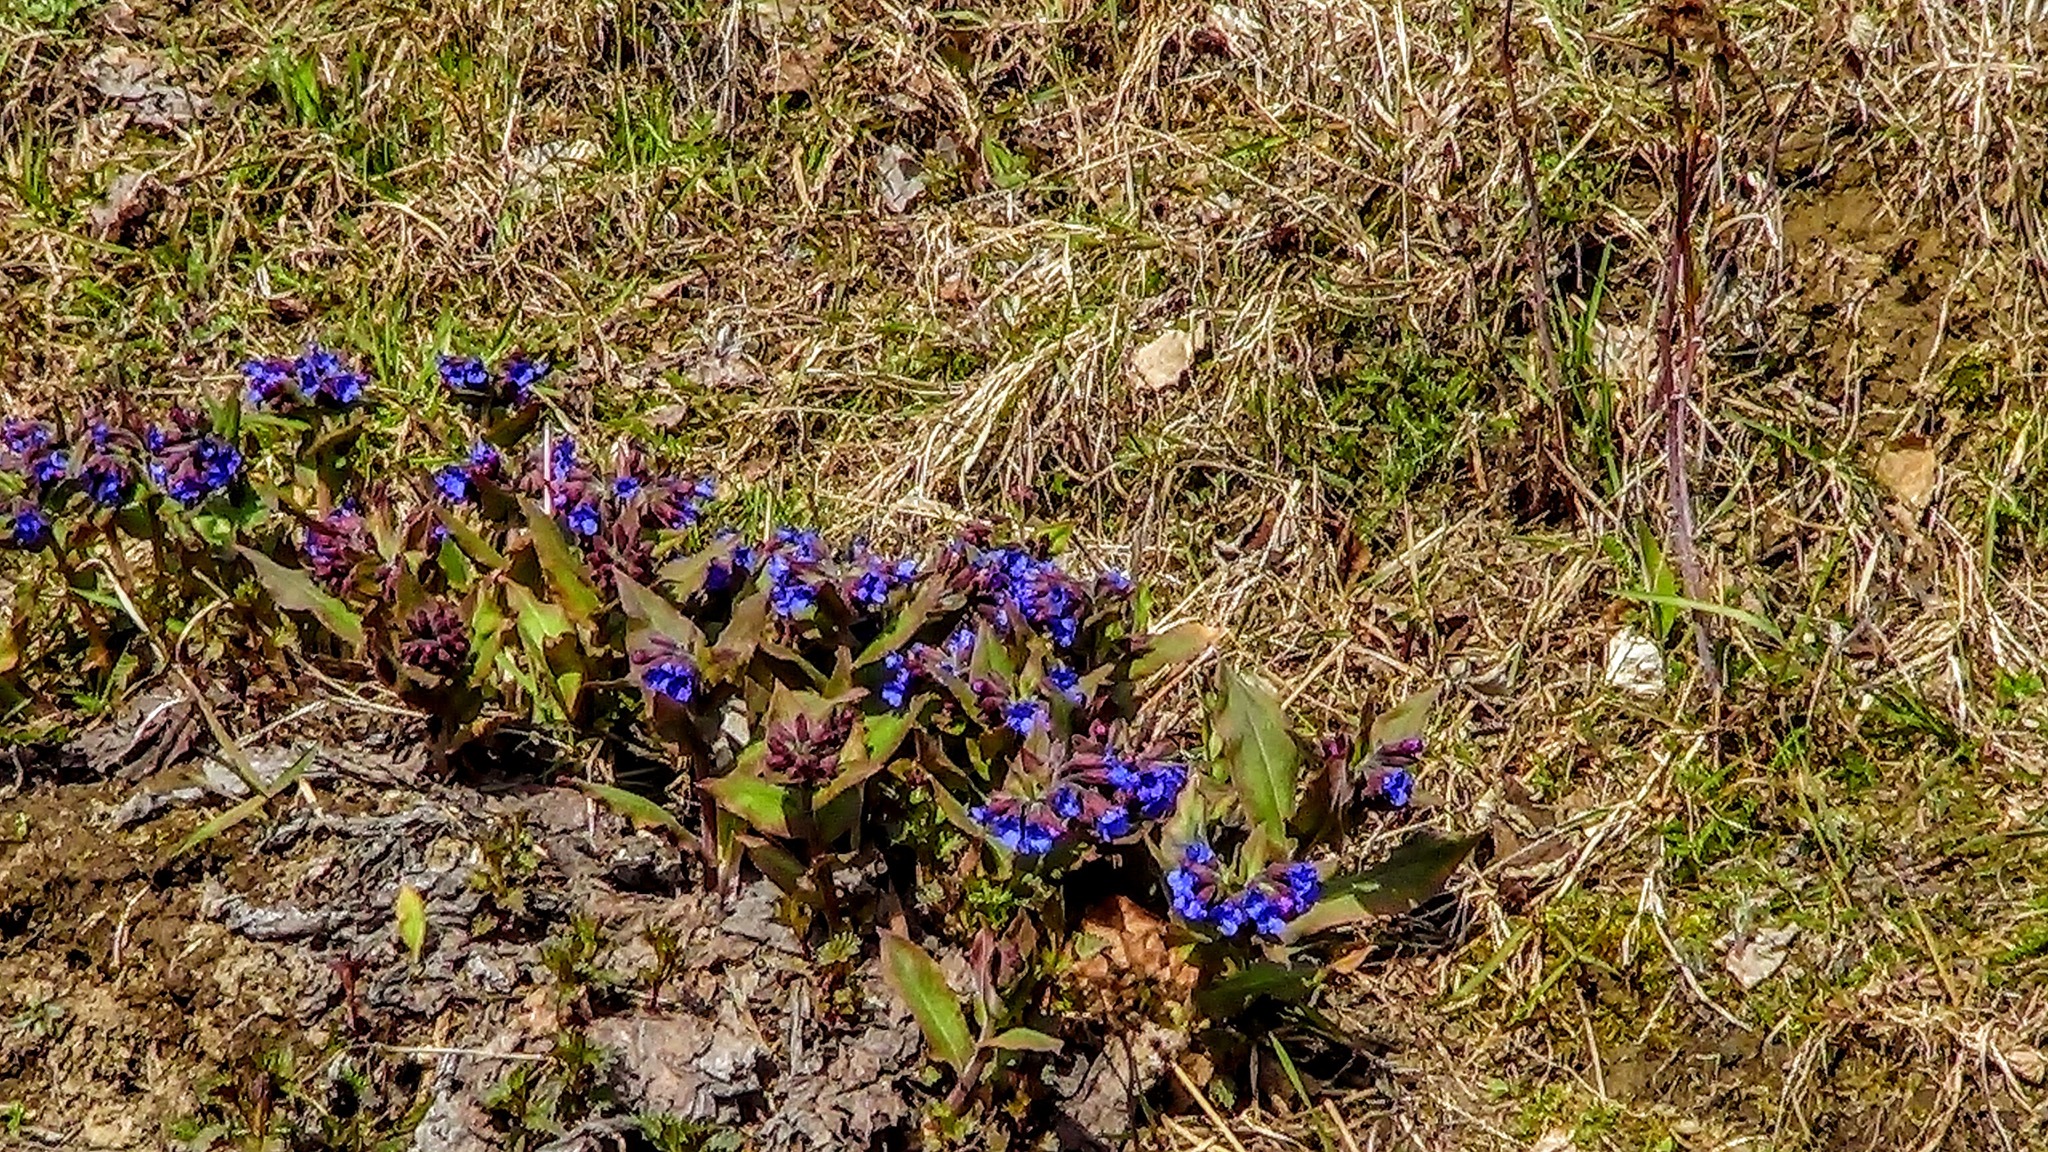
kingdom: Plantae
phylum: Tracheophyta
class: Magnoliopsida
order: Boraginales
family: Boraginaceae
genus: Pulmonaria
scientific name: Pulmonaria mollis
